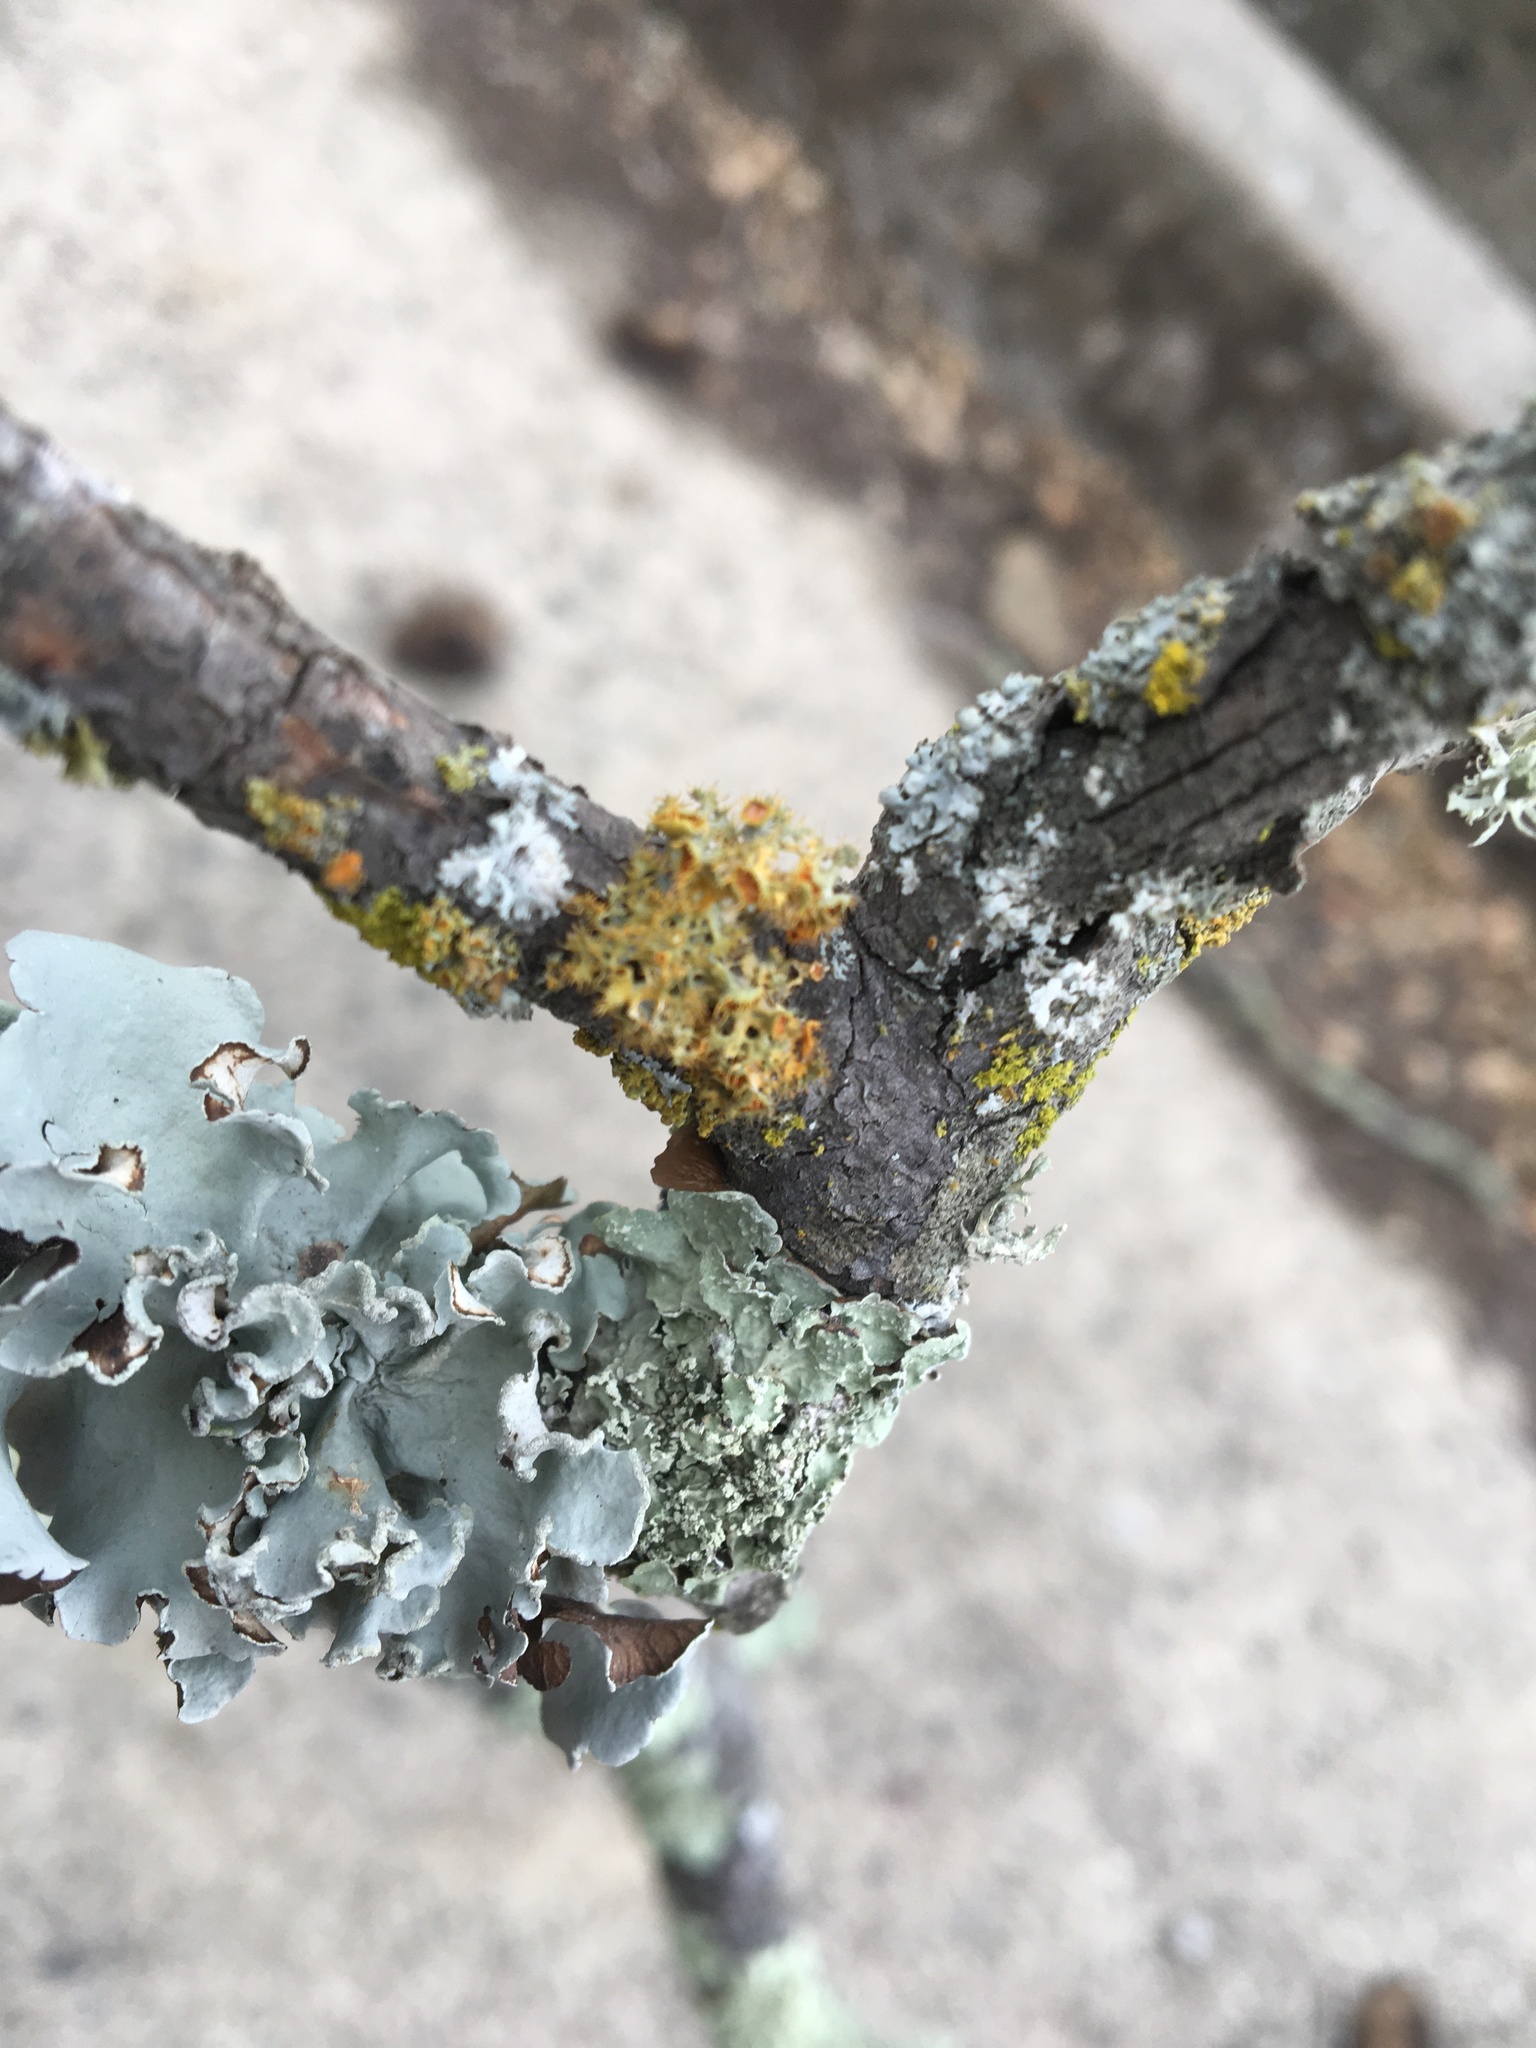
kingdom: Fungi
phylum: Ascomycota
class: Lecanoromycetes
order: Teloschistales
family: Teloschistaceae
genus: Niorma
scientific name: Niorma chrysophthalma
